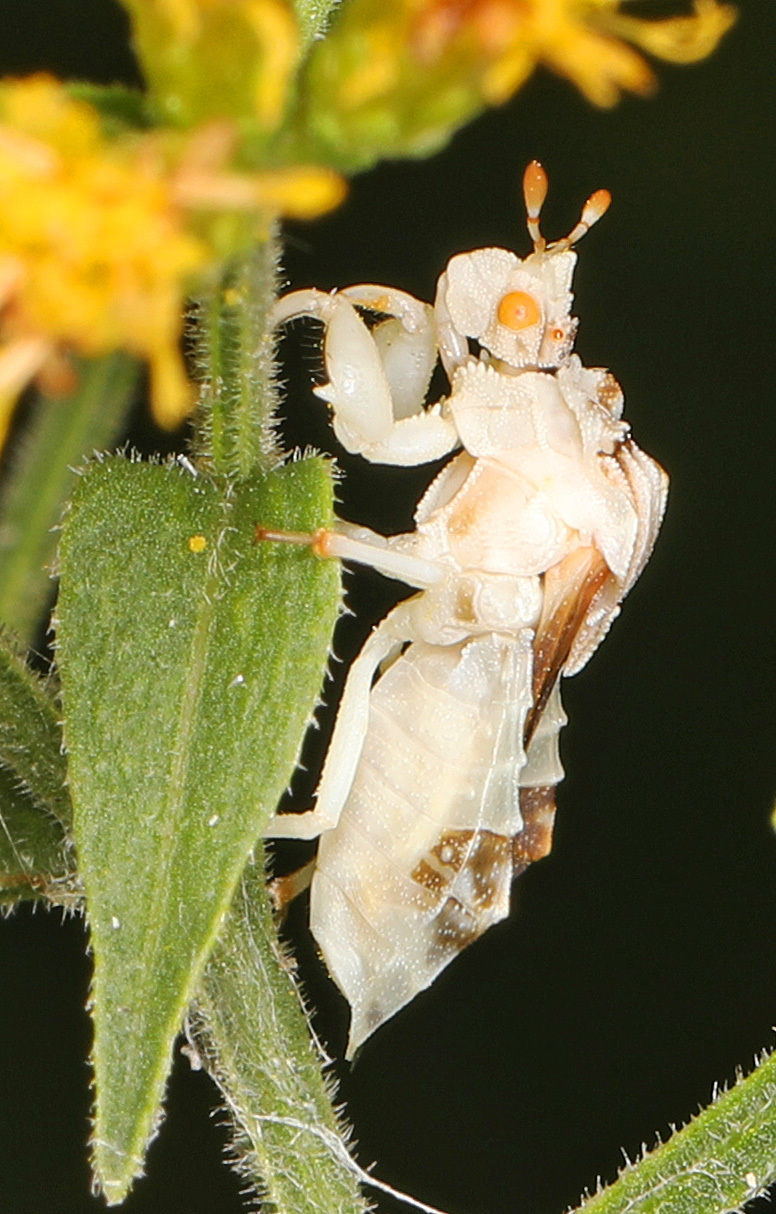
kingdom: Animalia
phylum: Arthropoda
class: Insecta
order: Hemiptera
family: Reduviidae
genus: Phymata
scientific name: Phymata fasciata
